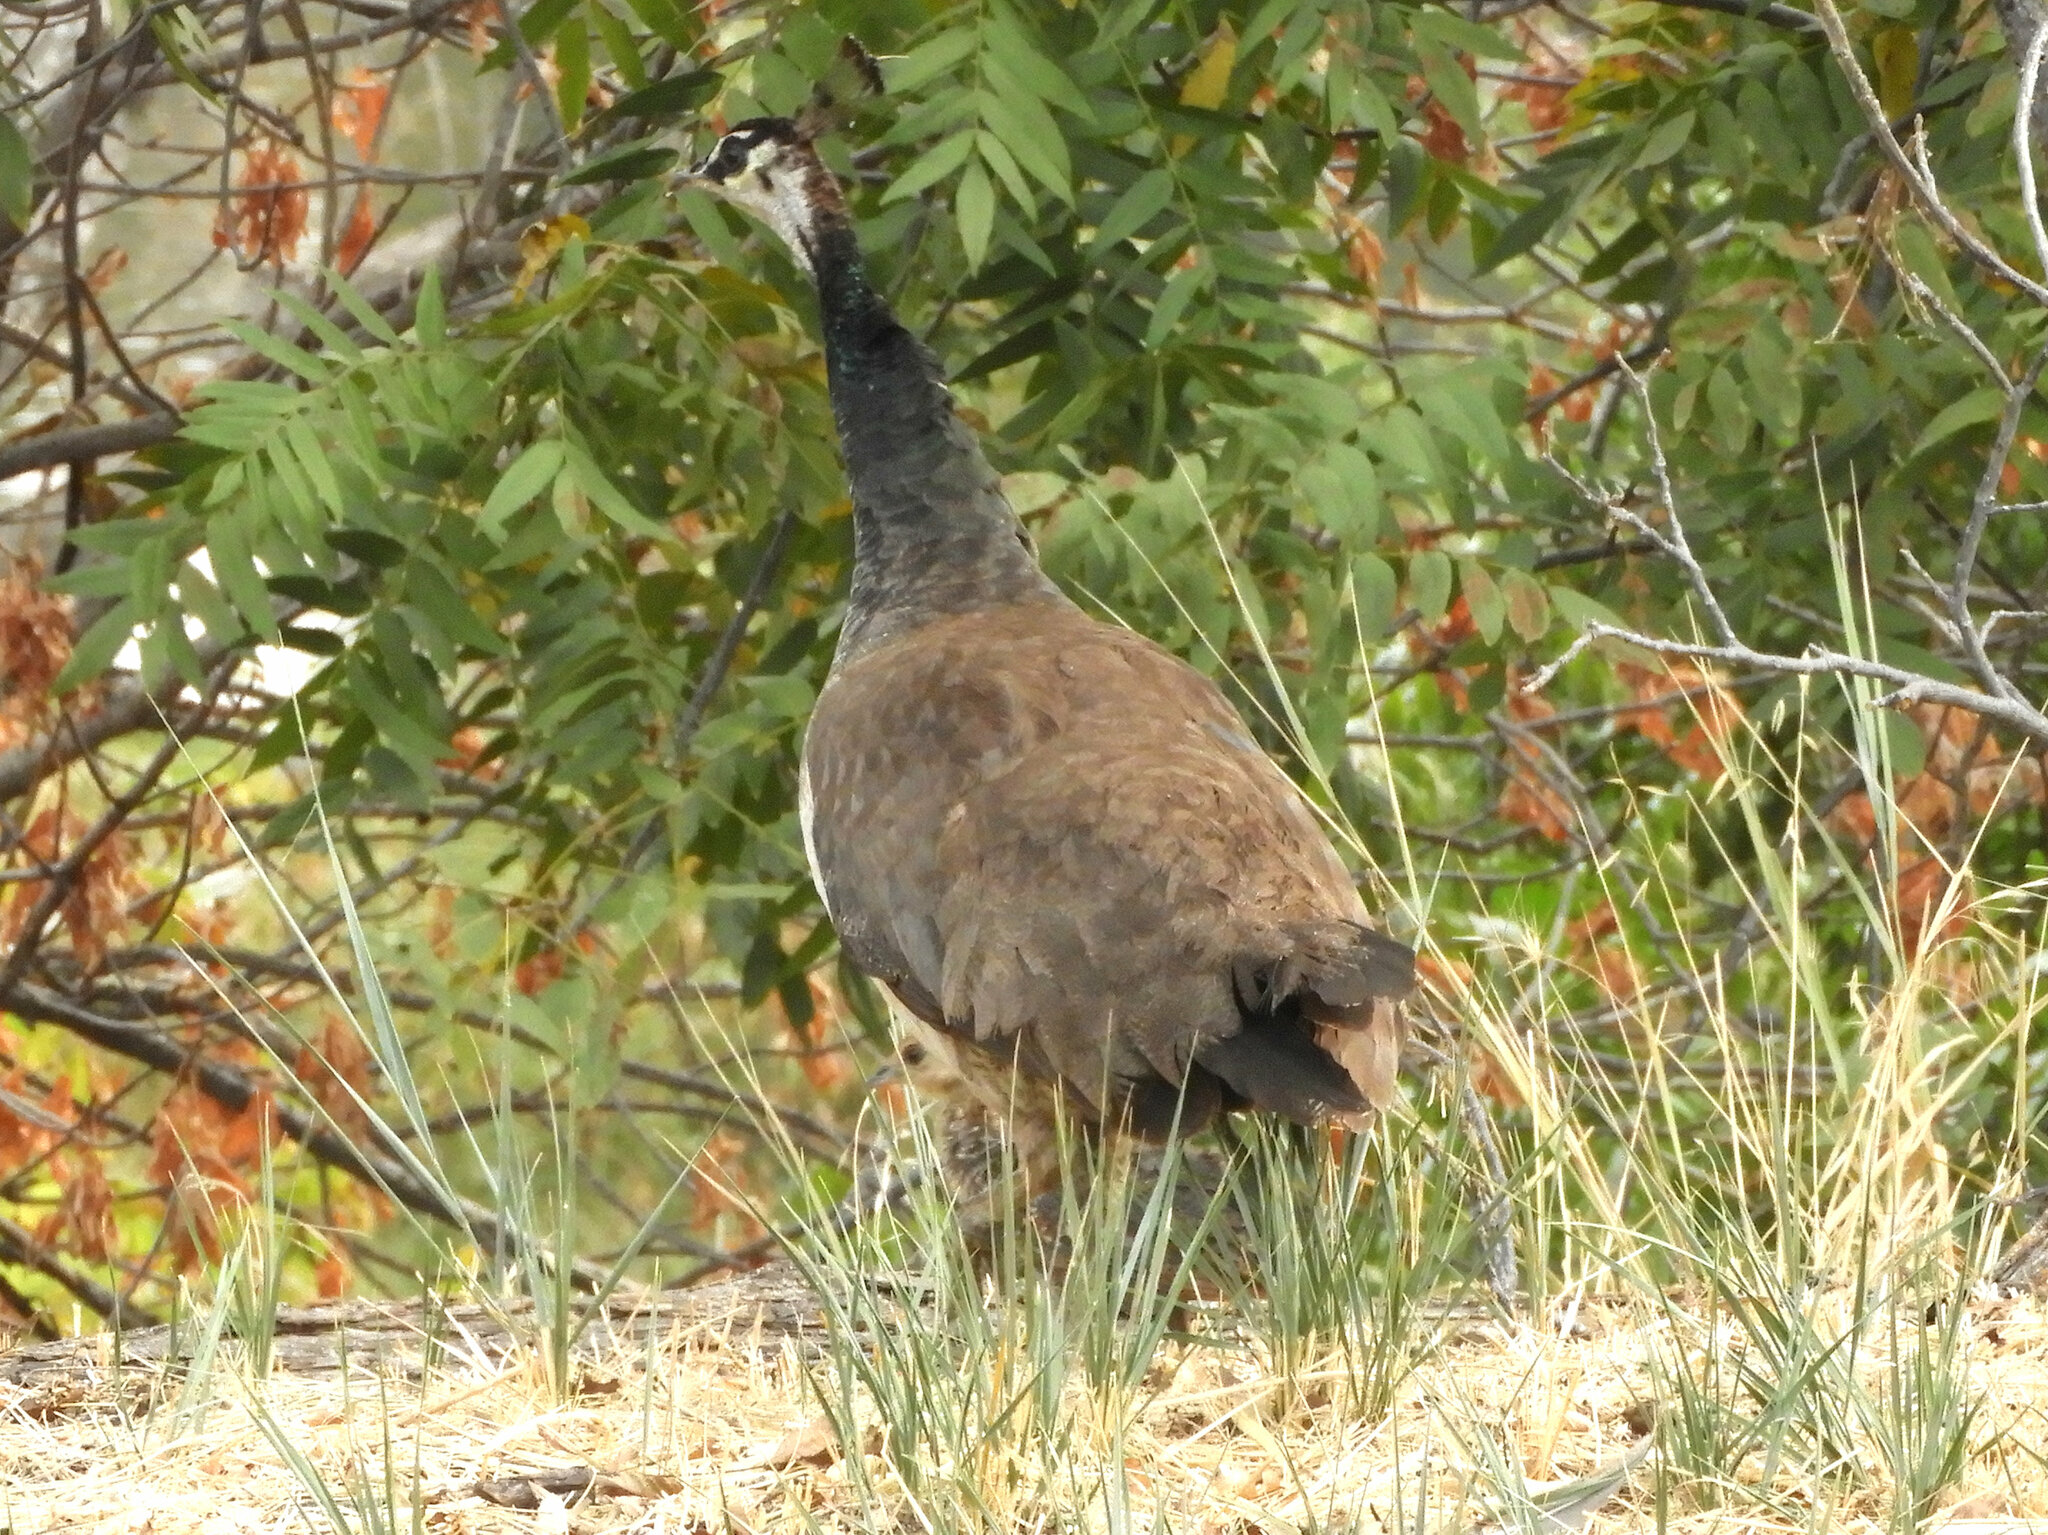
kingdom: Animalia
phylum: Chordata
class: Aves
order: Galliformes
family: Phasianidae
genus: Pavo
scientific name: Pavo cristatus
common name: Indian peafowl
